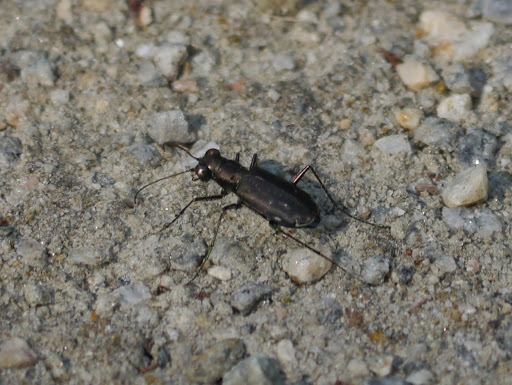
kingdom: Animalia
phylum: Arthropoda
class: Insecta
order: Coleoptera
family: Carabidae
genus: Cicindela
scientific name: Cicindela punctulata
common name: Punctured tiger beetle
